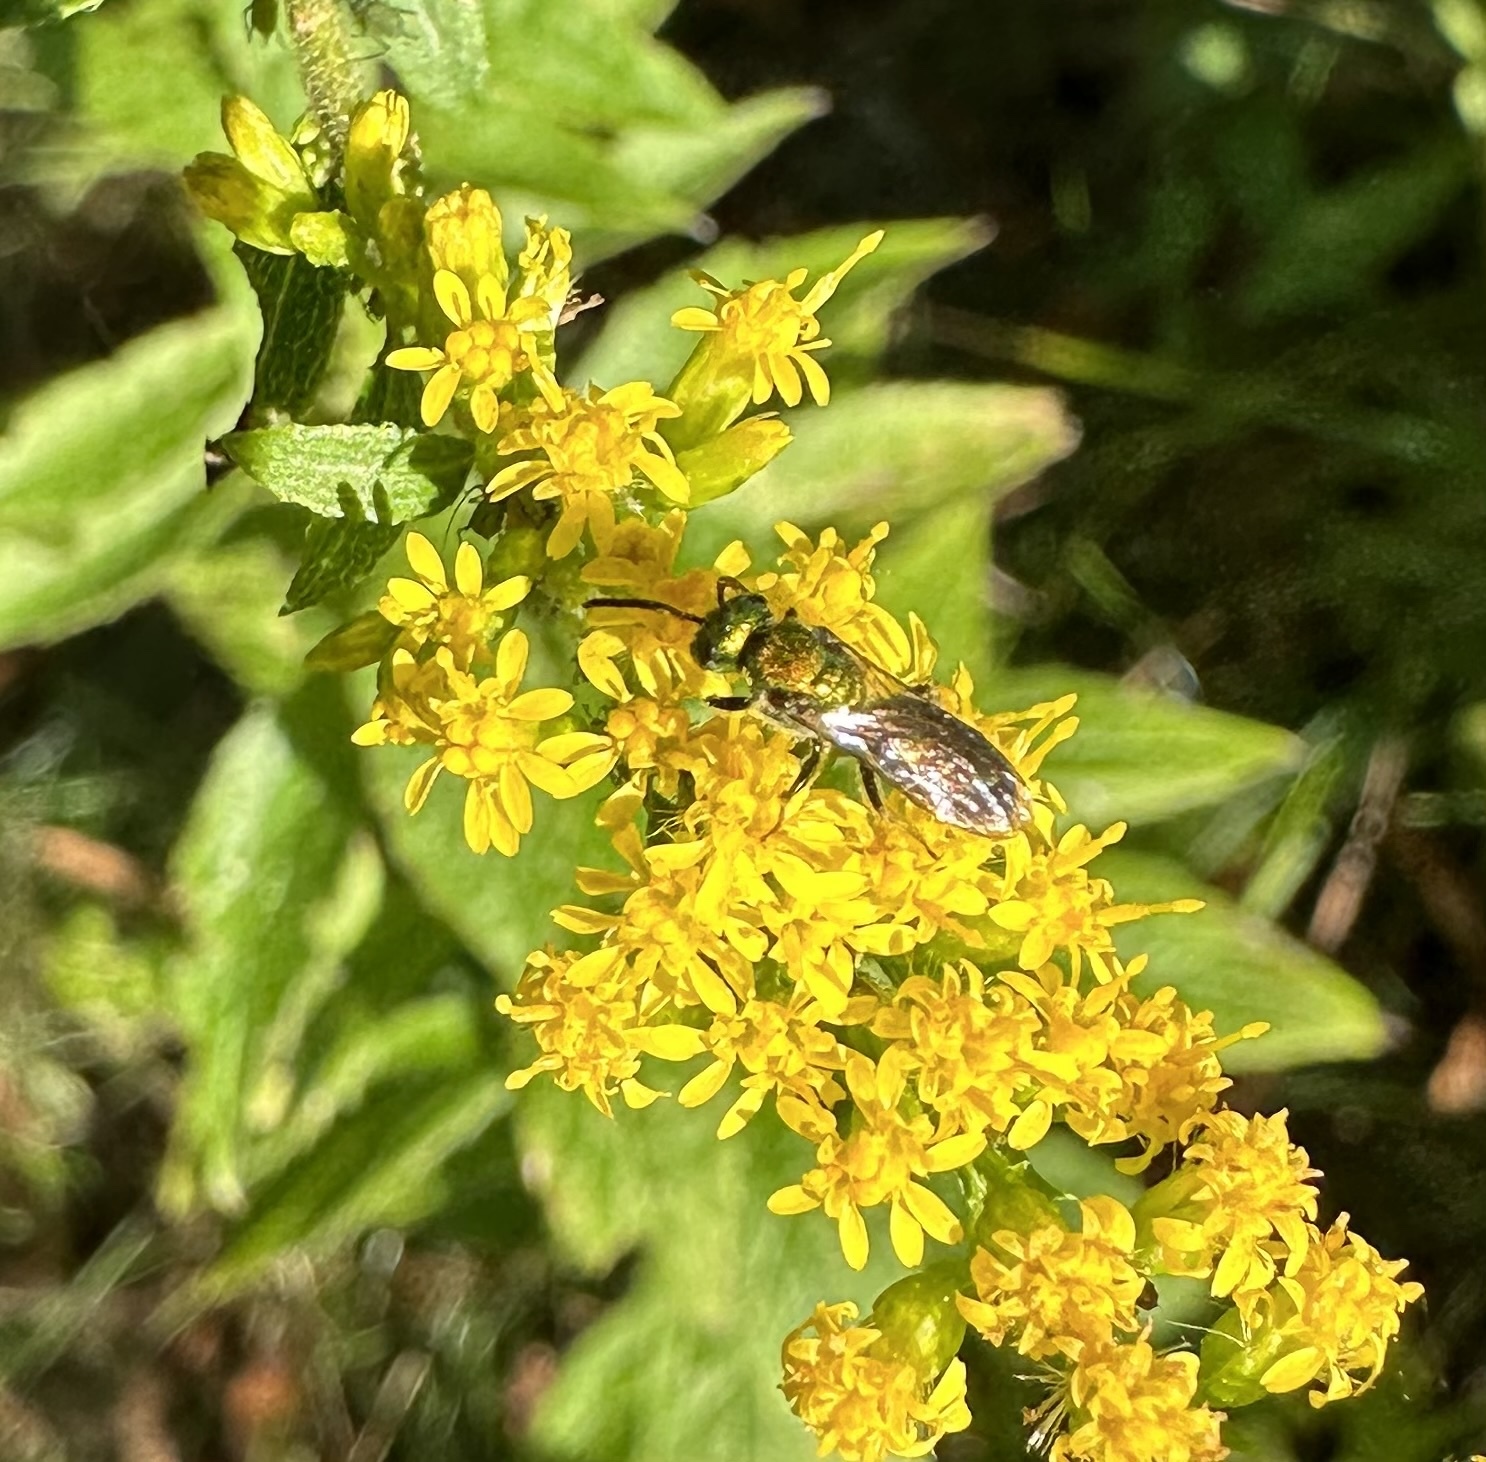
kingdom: Animalia
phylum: Arthropoda
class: Insecta
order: Hymenoptera
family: Halictidae
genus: Augochlora
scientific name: Augochlora pura
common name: Pure green sweat bee
